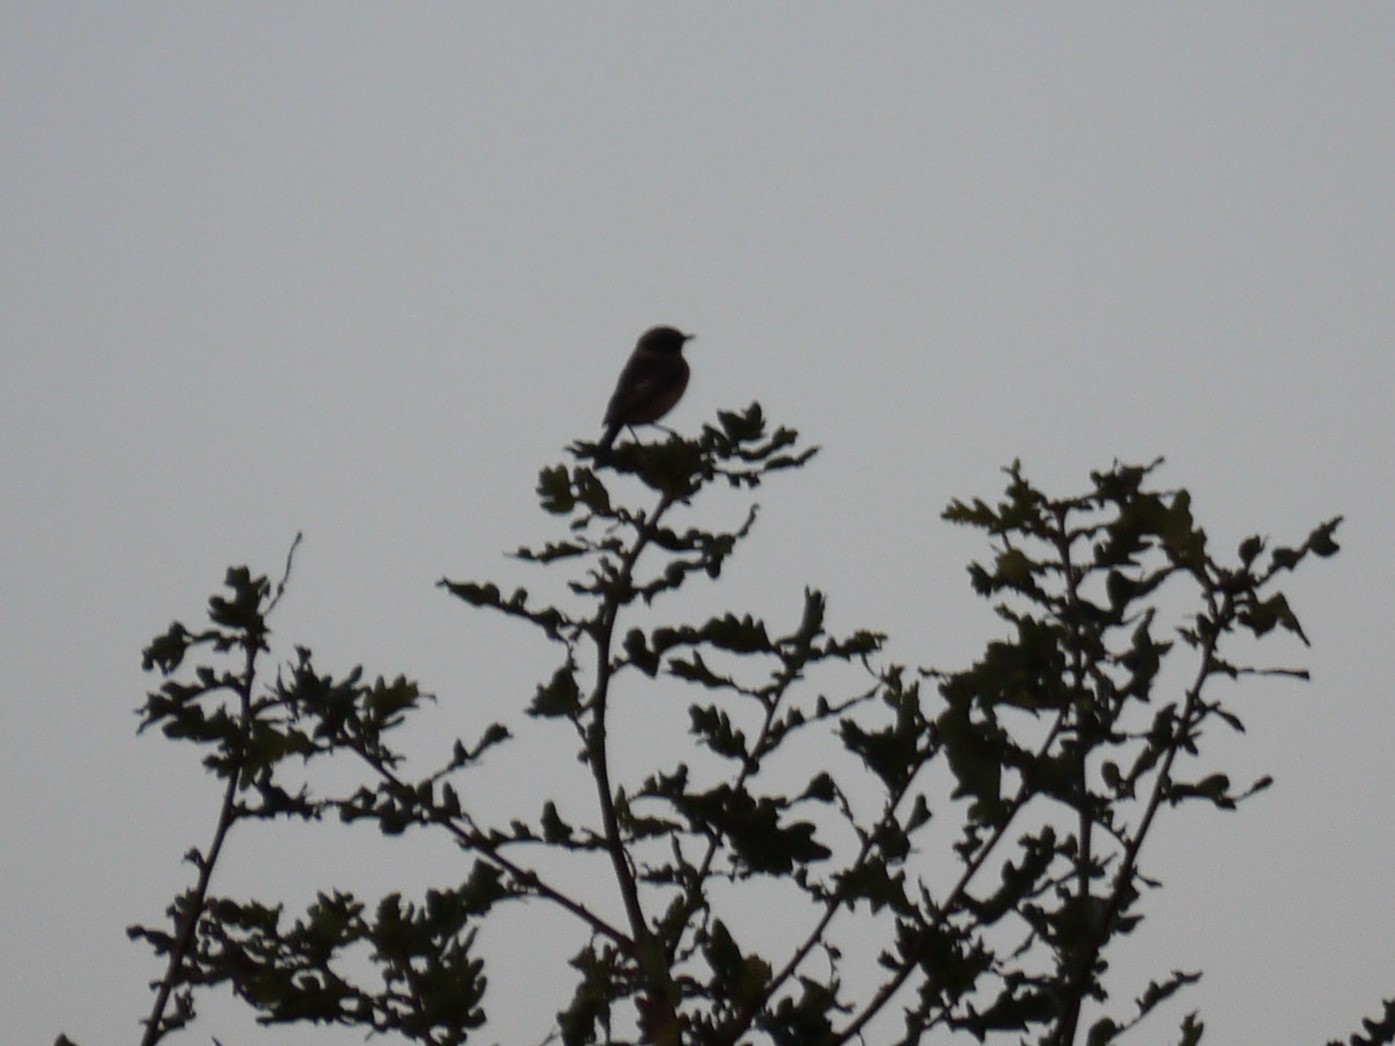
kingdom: Animalia
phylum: Chordata
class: Aves
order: Passeriformes
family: Muscicapidae
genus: Saxicola
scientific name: Saxicola rubicola
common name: European stonechat
